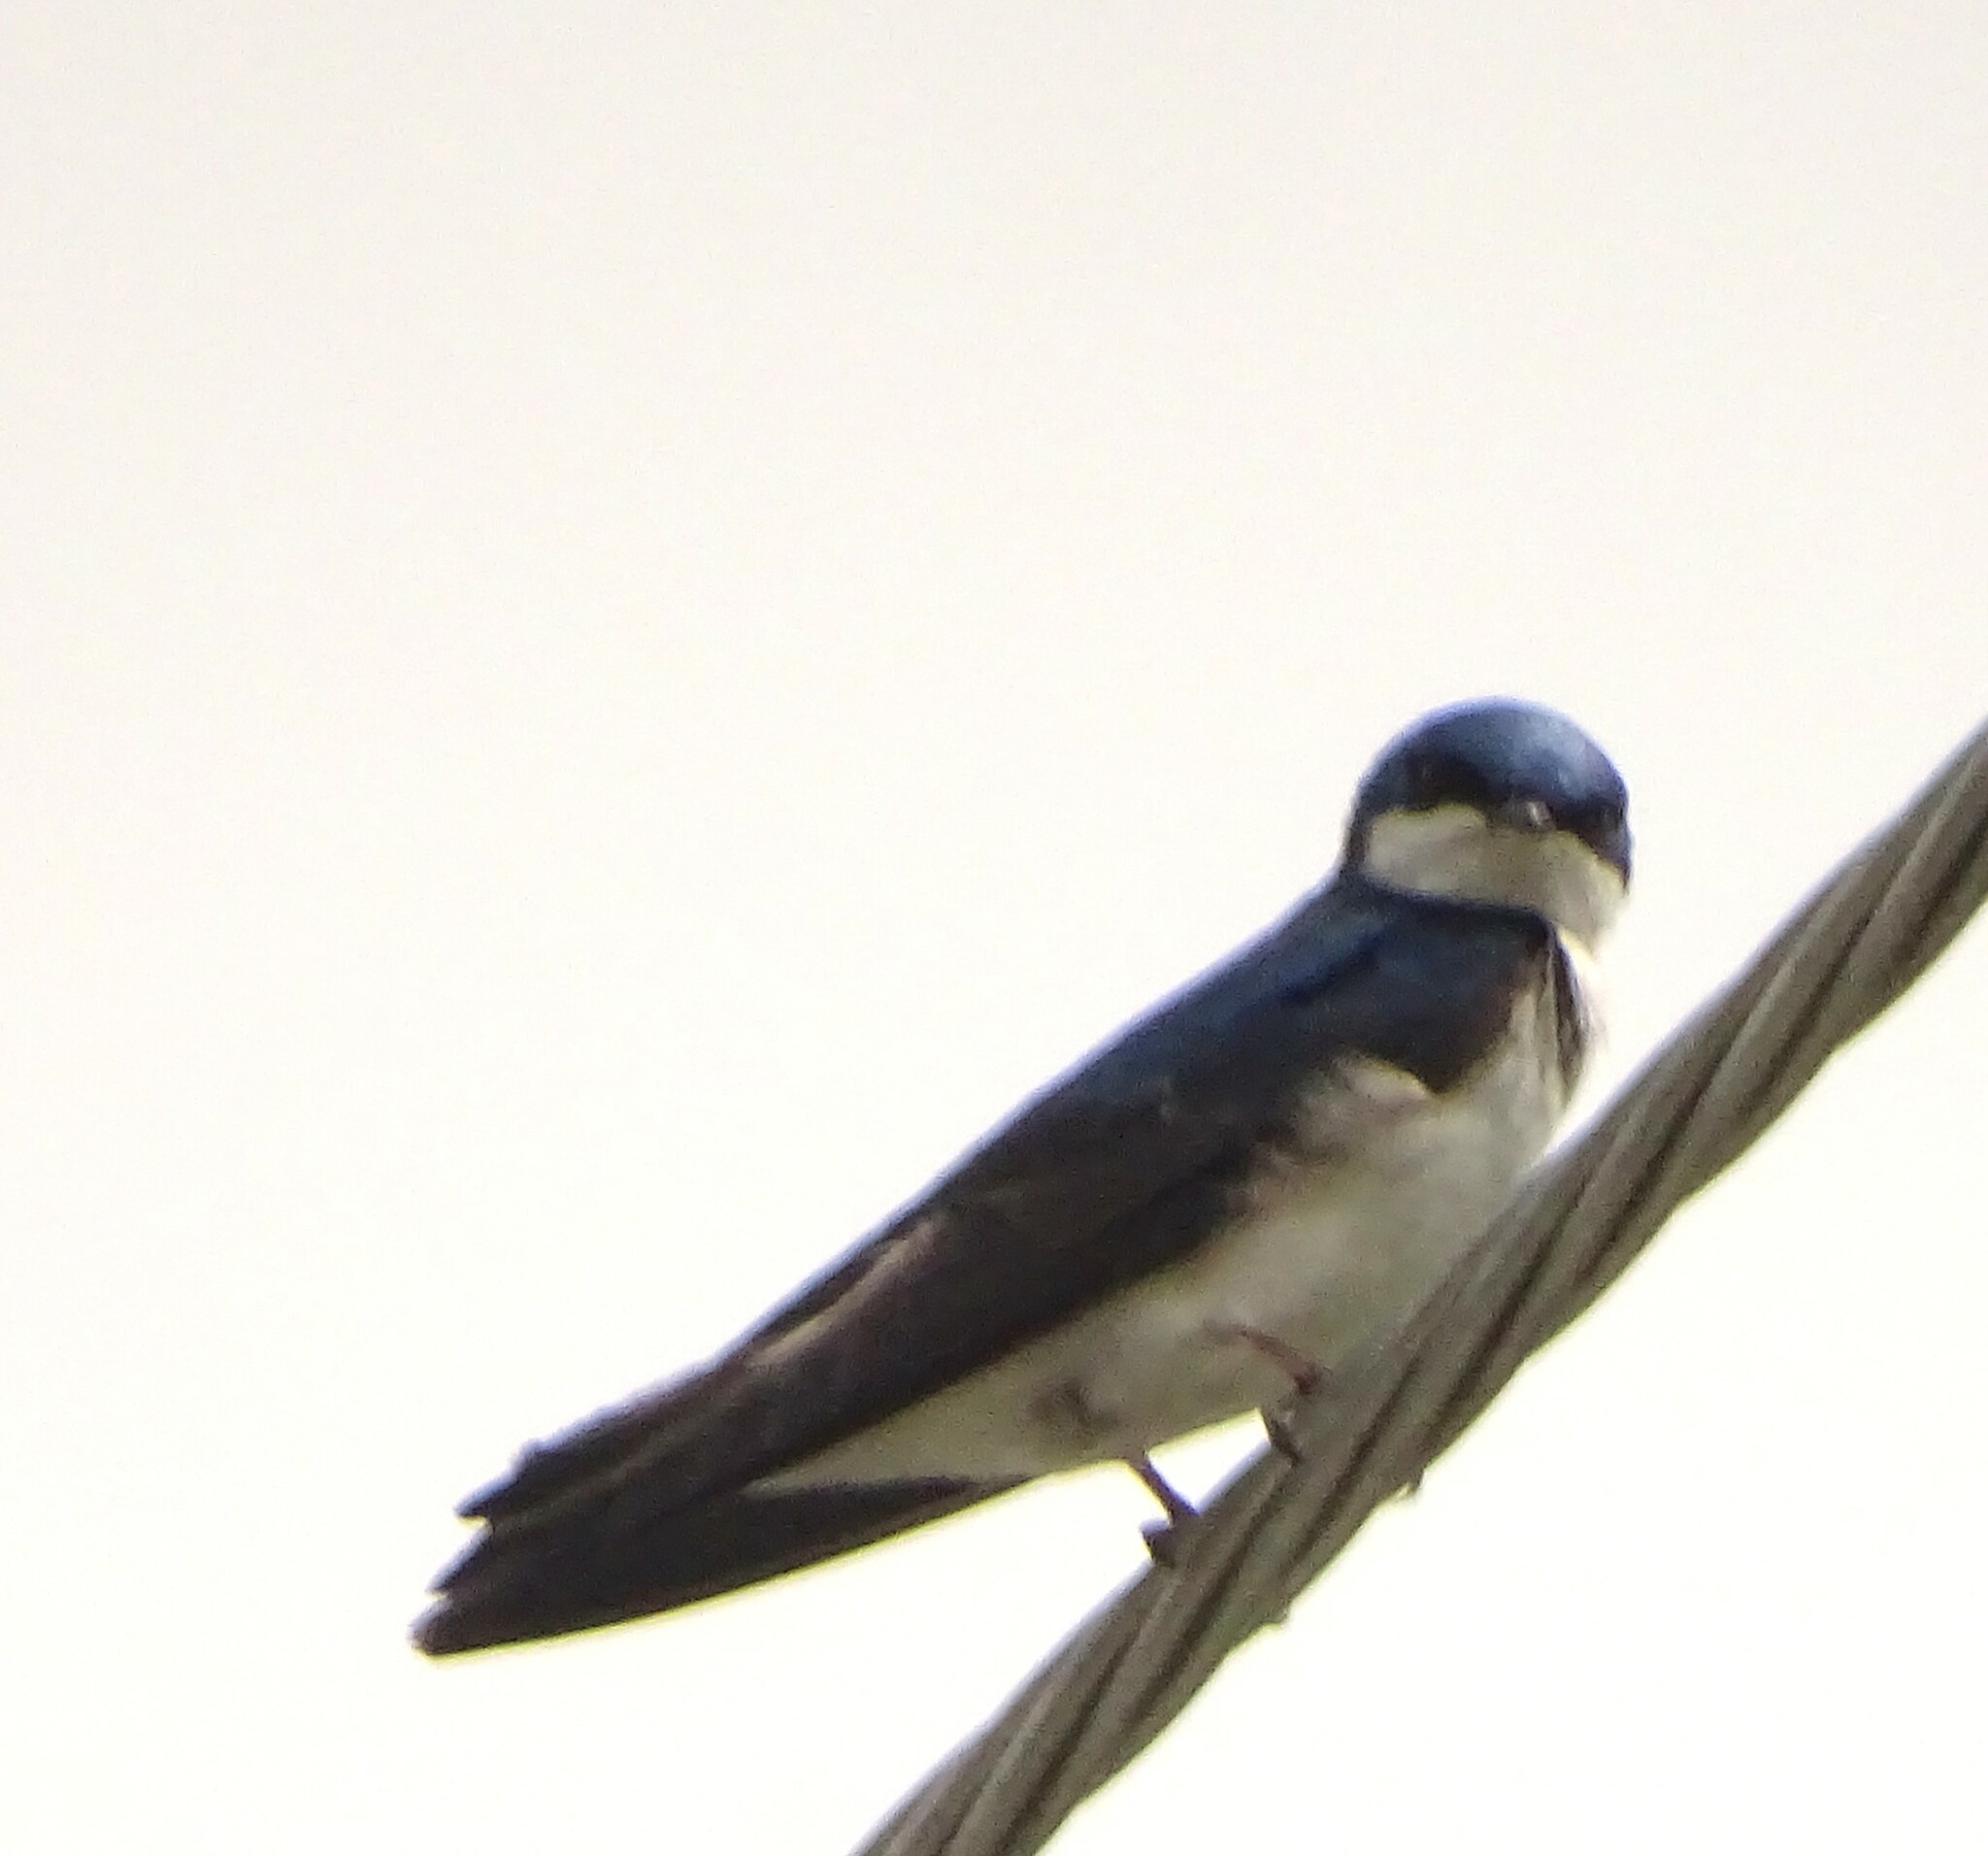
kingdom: Animalia
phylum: Chordata
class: Aves
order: Passeriformes
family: Hirundinidae
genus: Tachycineta
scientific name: Tachycineta bicolor
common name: Tree swallow
